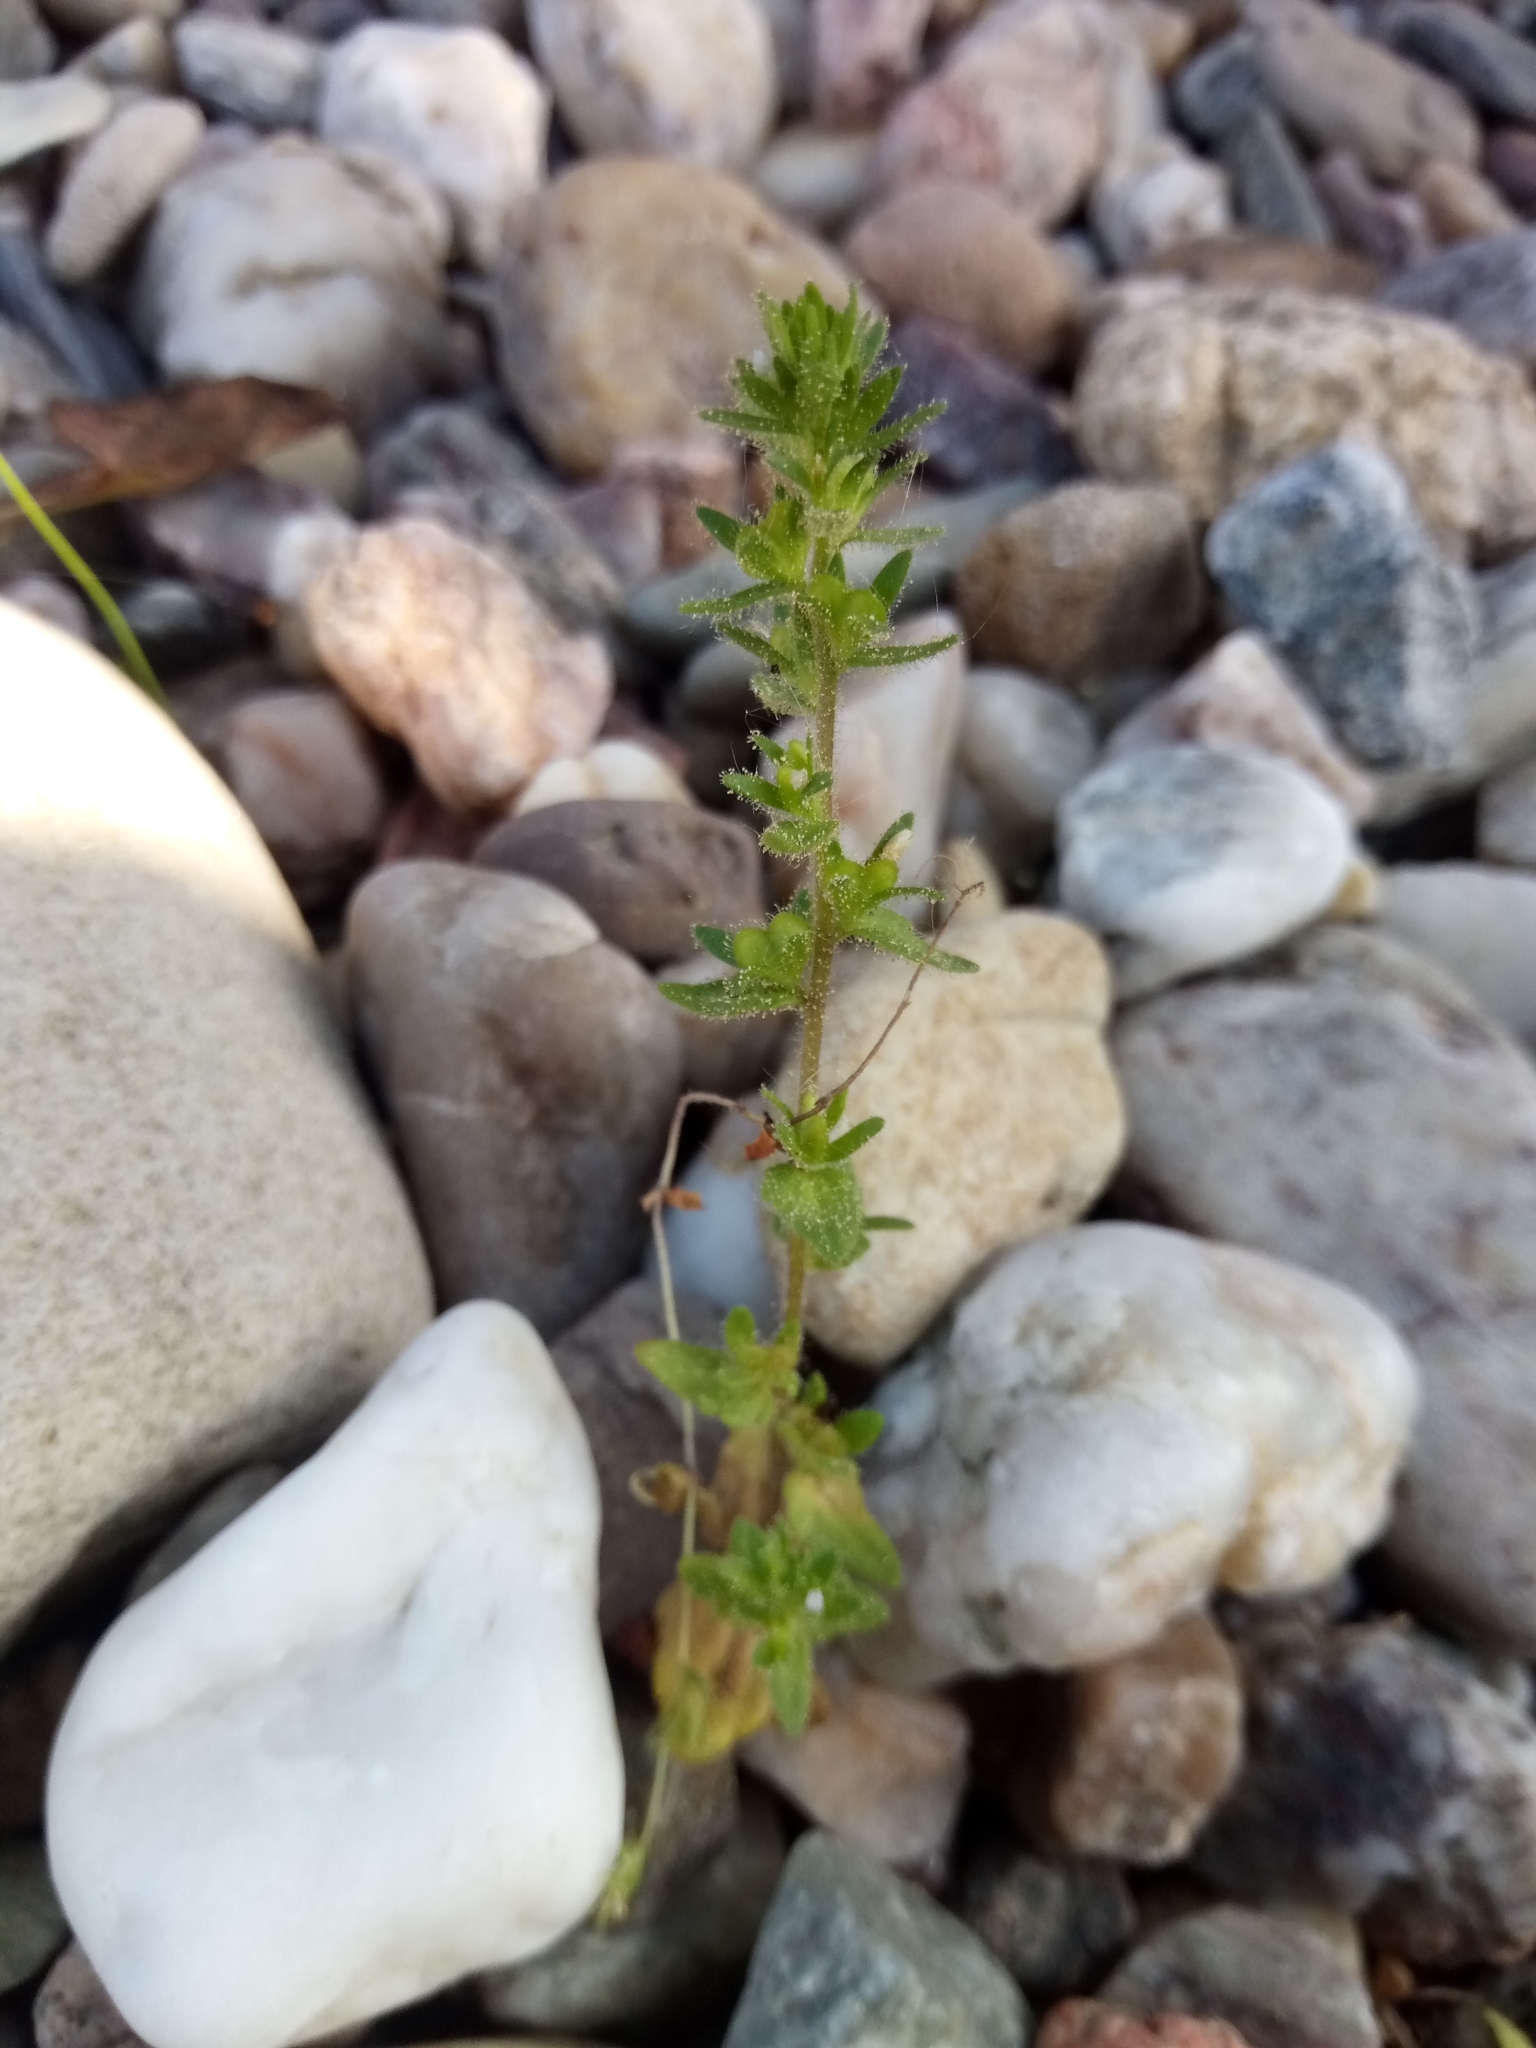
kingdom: Plantae
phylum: Tracheophyta
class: Magnoliopsida
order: Lamiales
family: Plantaginaceae
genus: Veronica
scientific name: Veronica arvensis
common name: Corn speedwell
